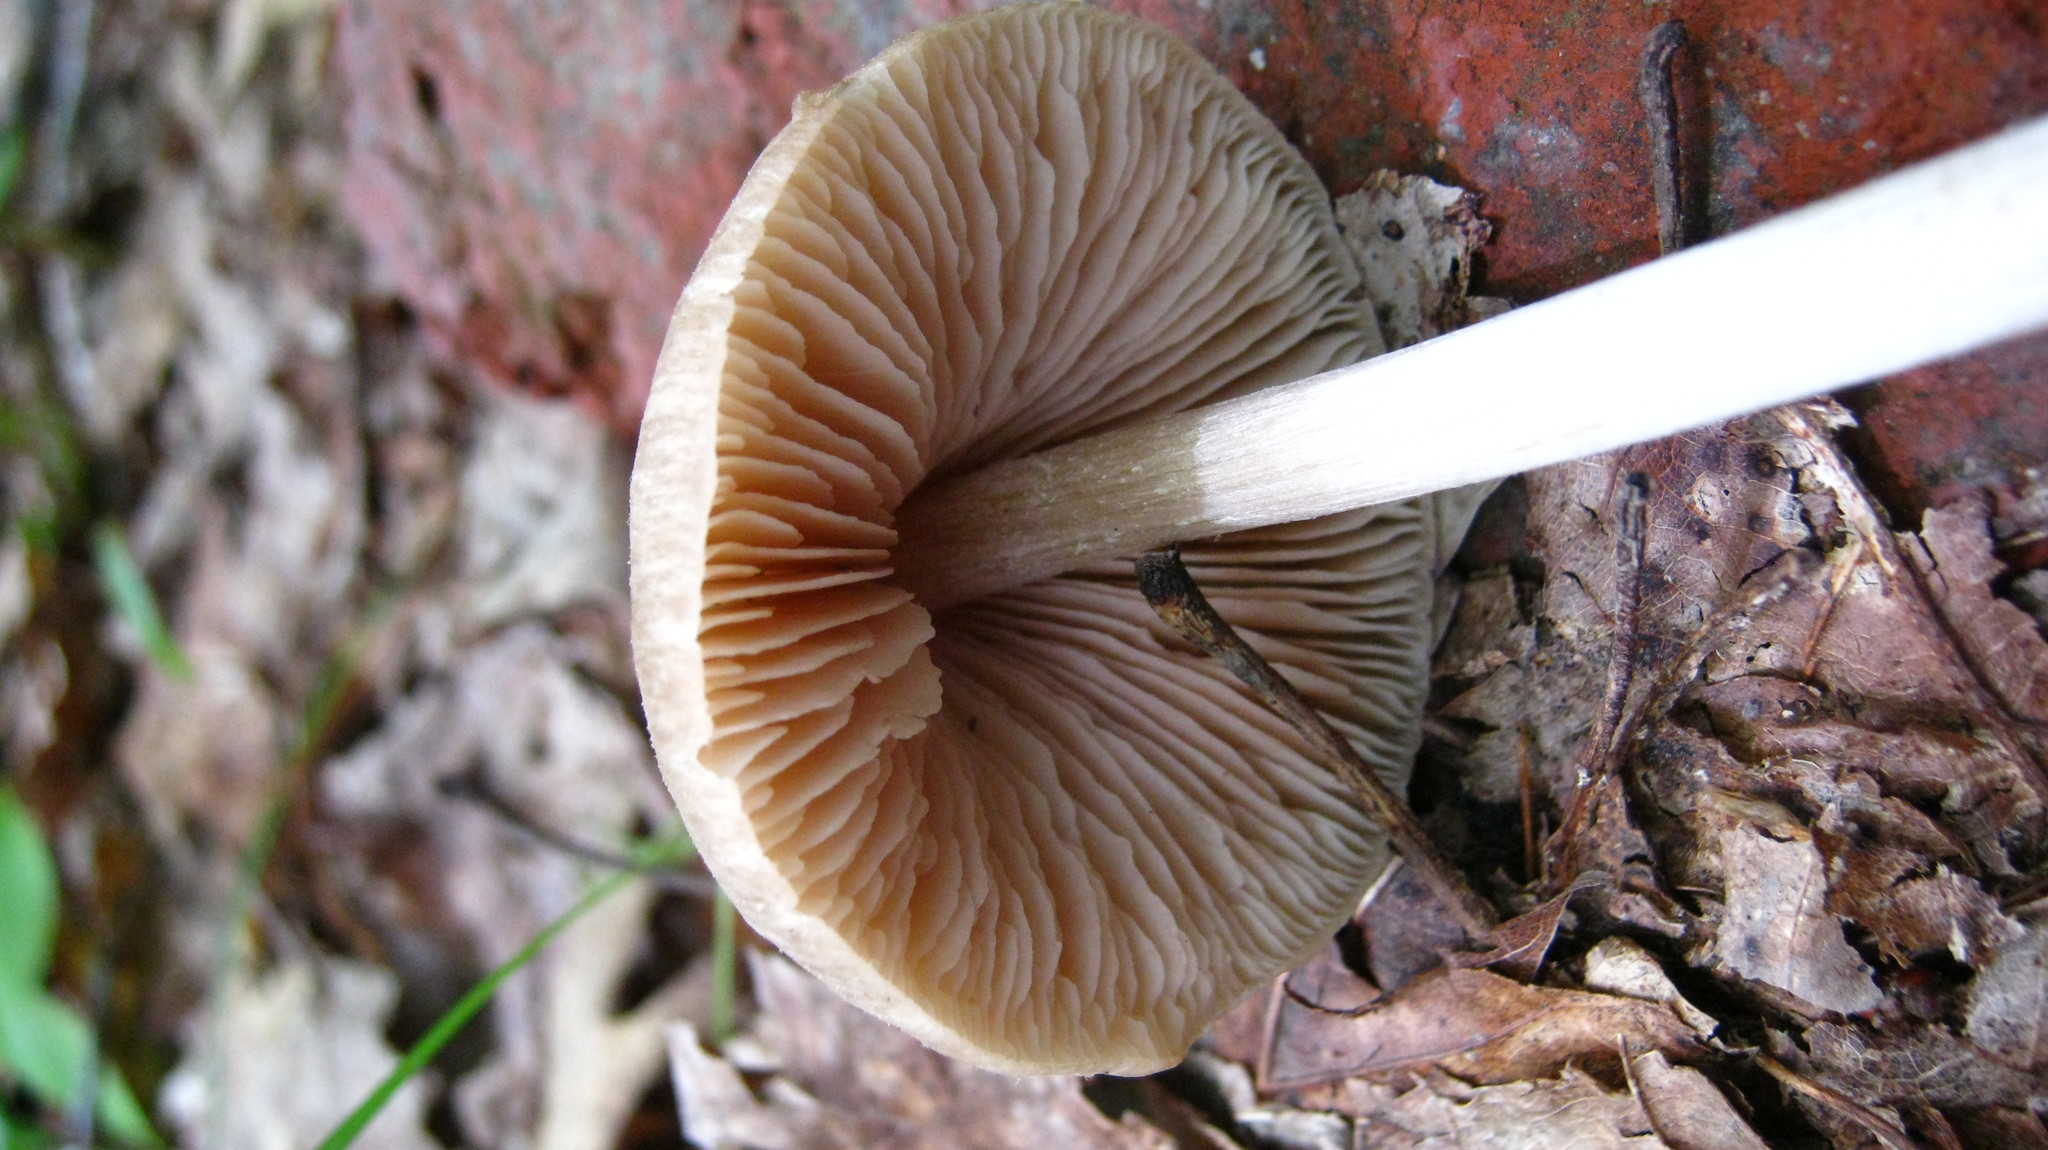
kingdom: Fungi
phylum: Basidiomycota
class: Agaricomycetes
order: Agaricales
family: Entolomataceae
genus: Entoloma
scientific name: Entoloma vernum
